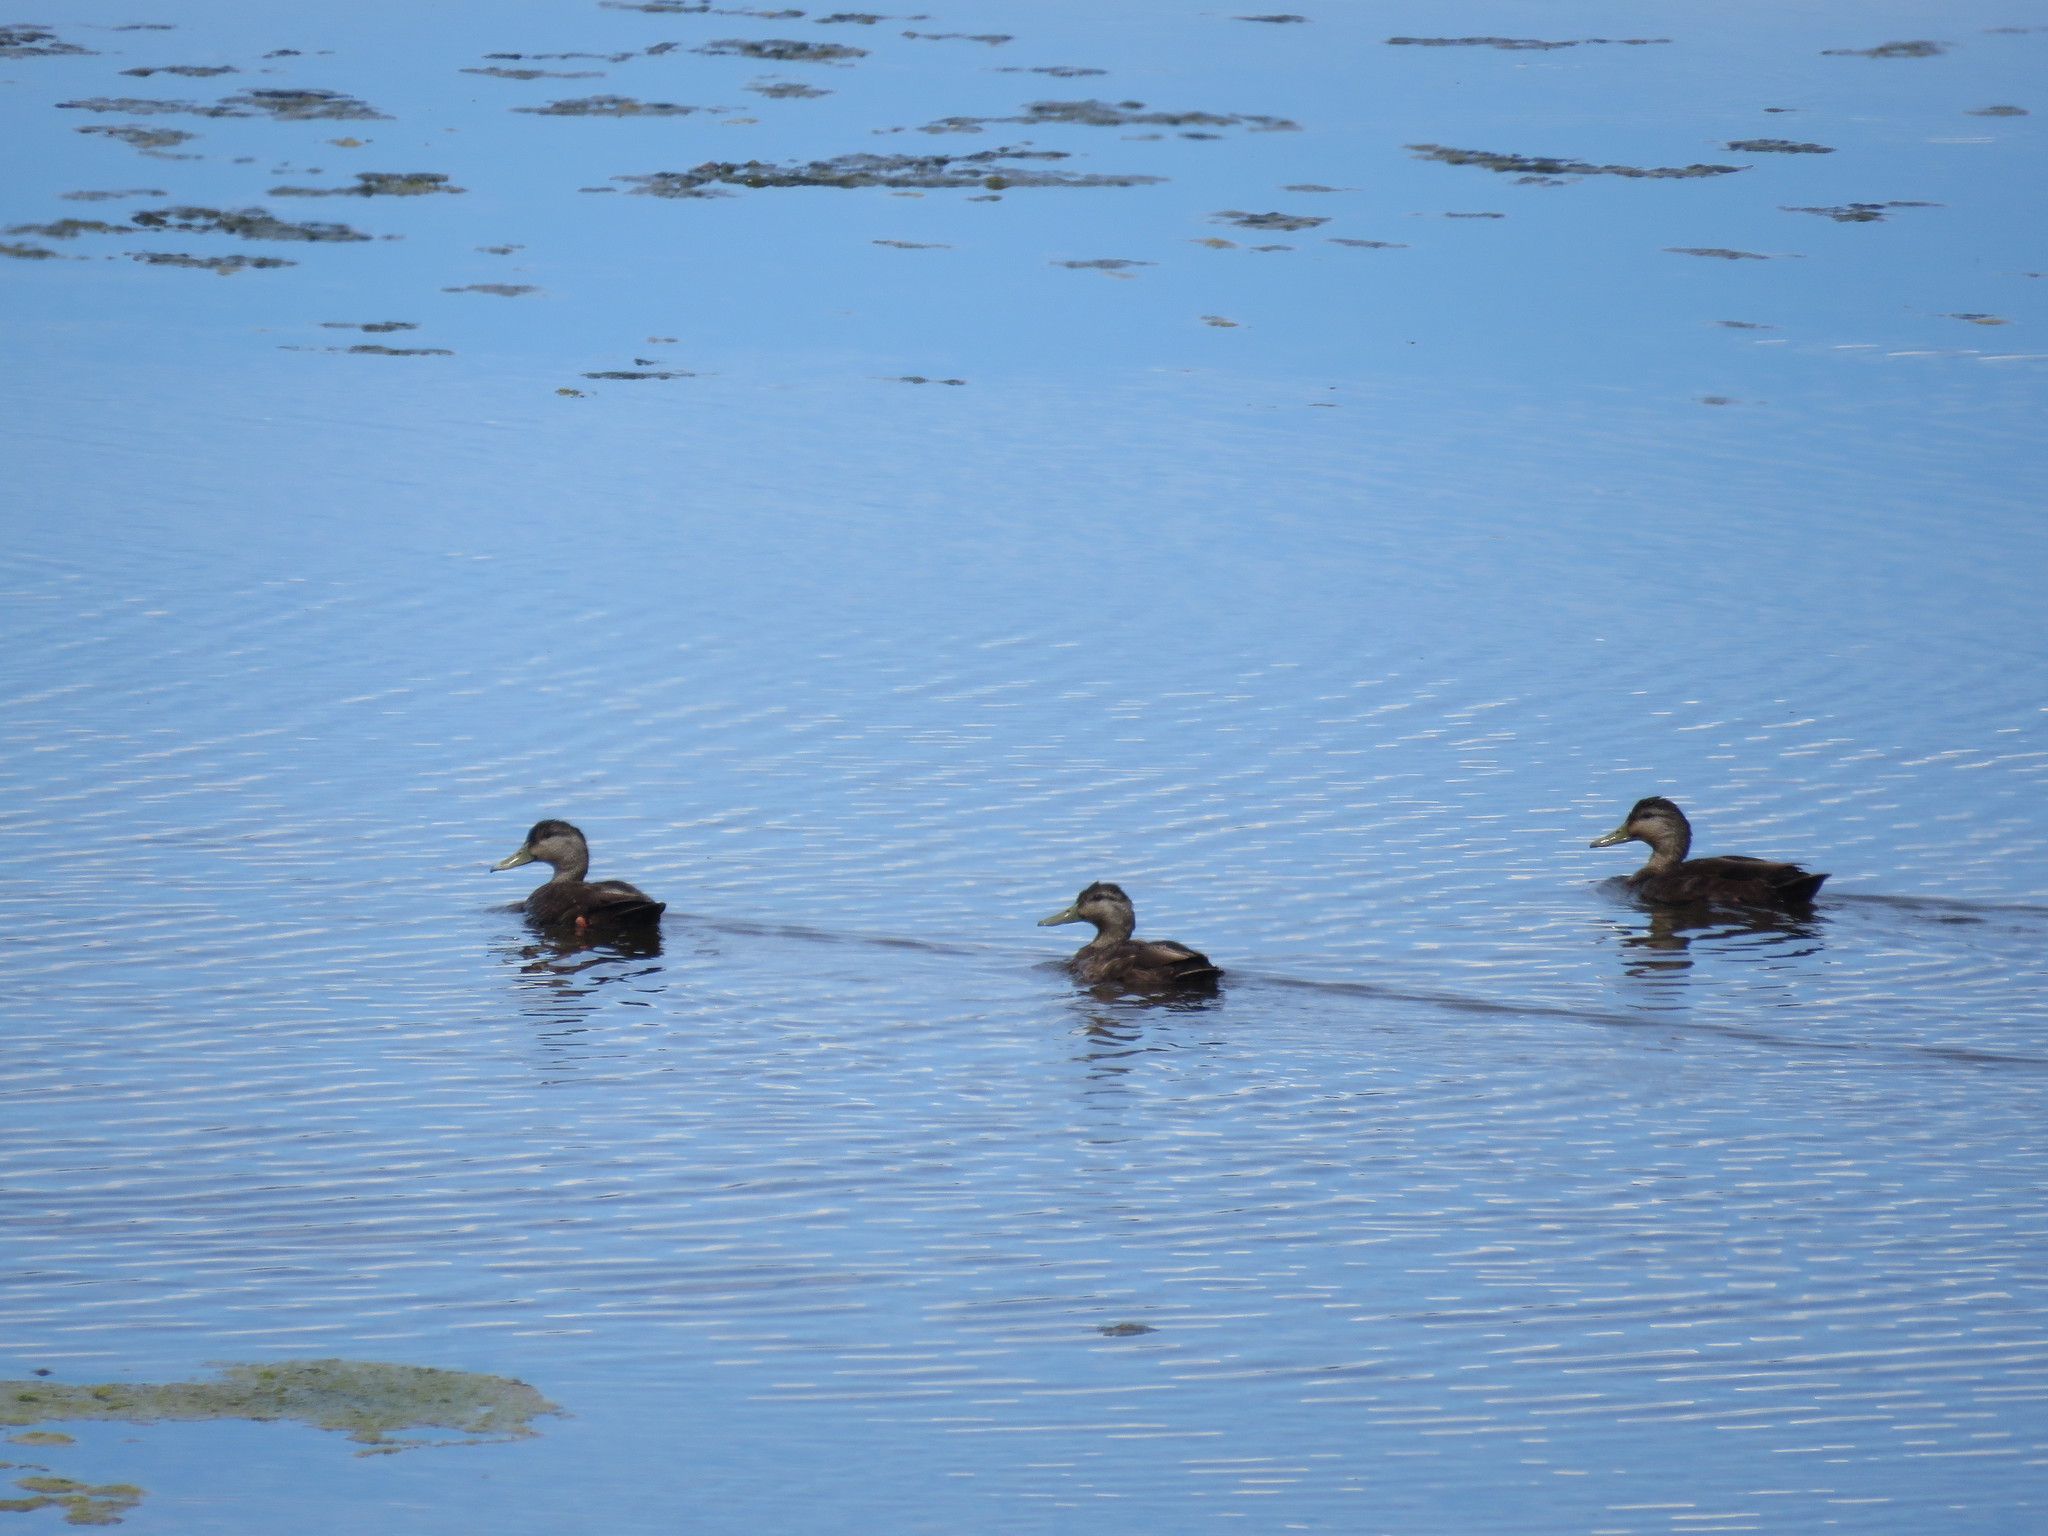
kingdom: Animalia
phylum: Chordata
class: Aves
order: Anseriformes
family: Anatidae
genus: Anas
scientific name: Anas rubripes
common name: American black duck
